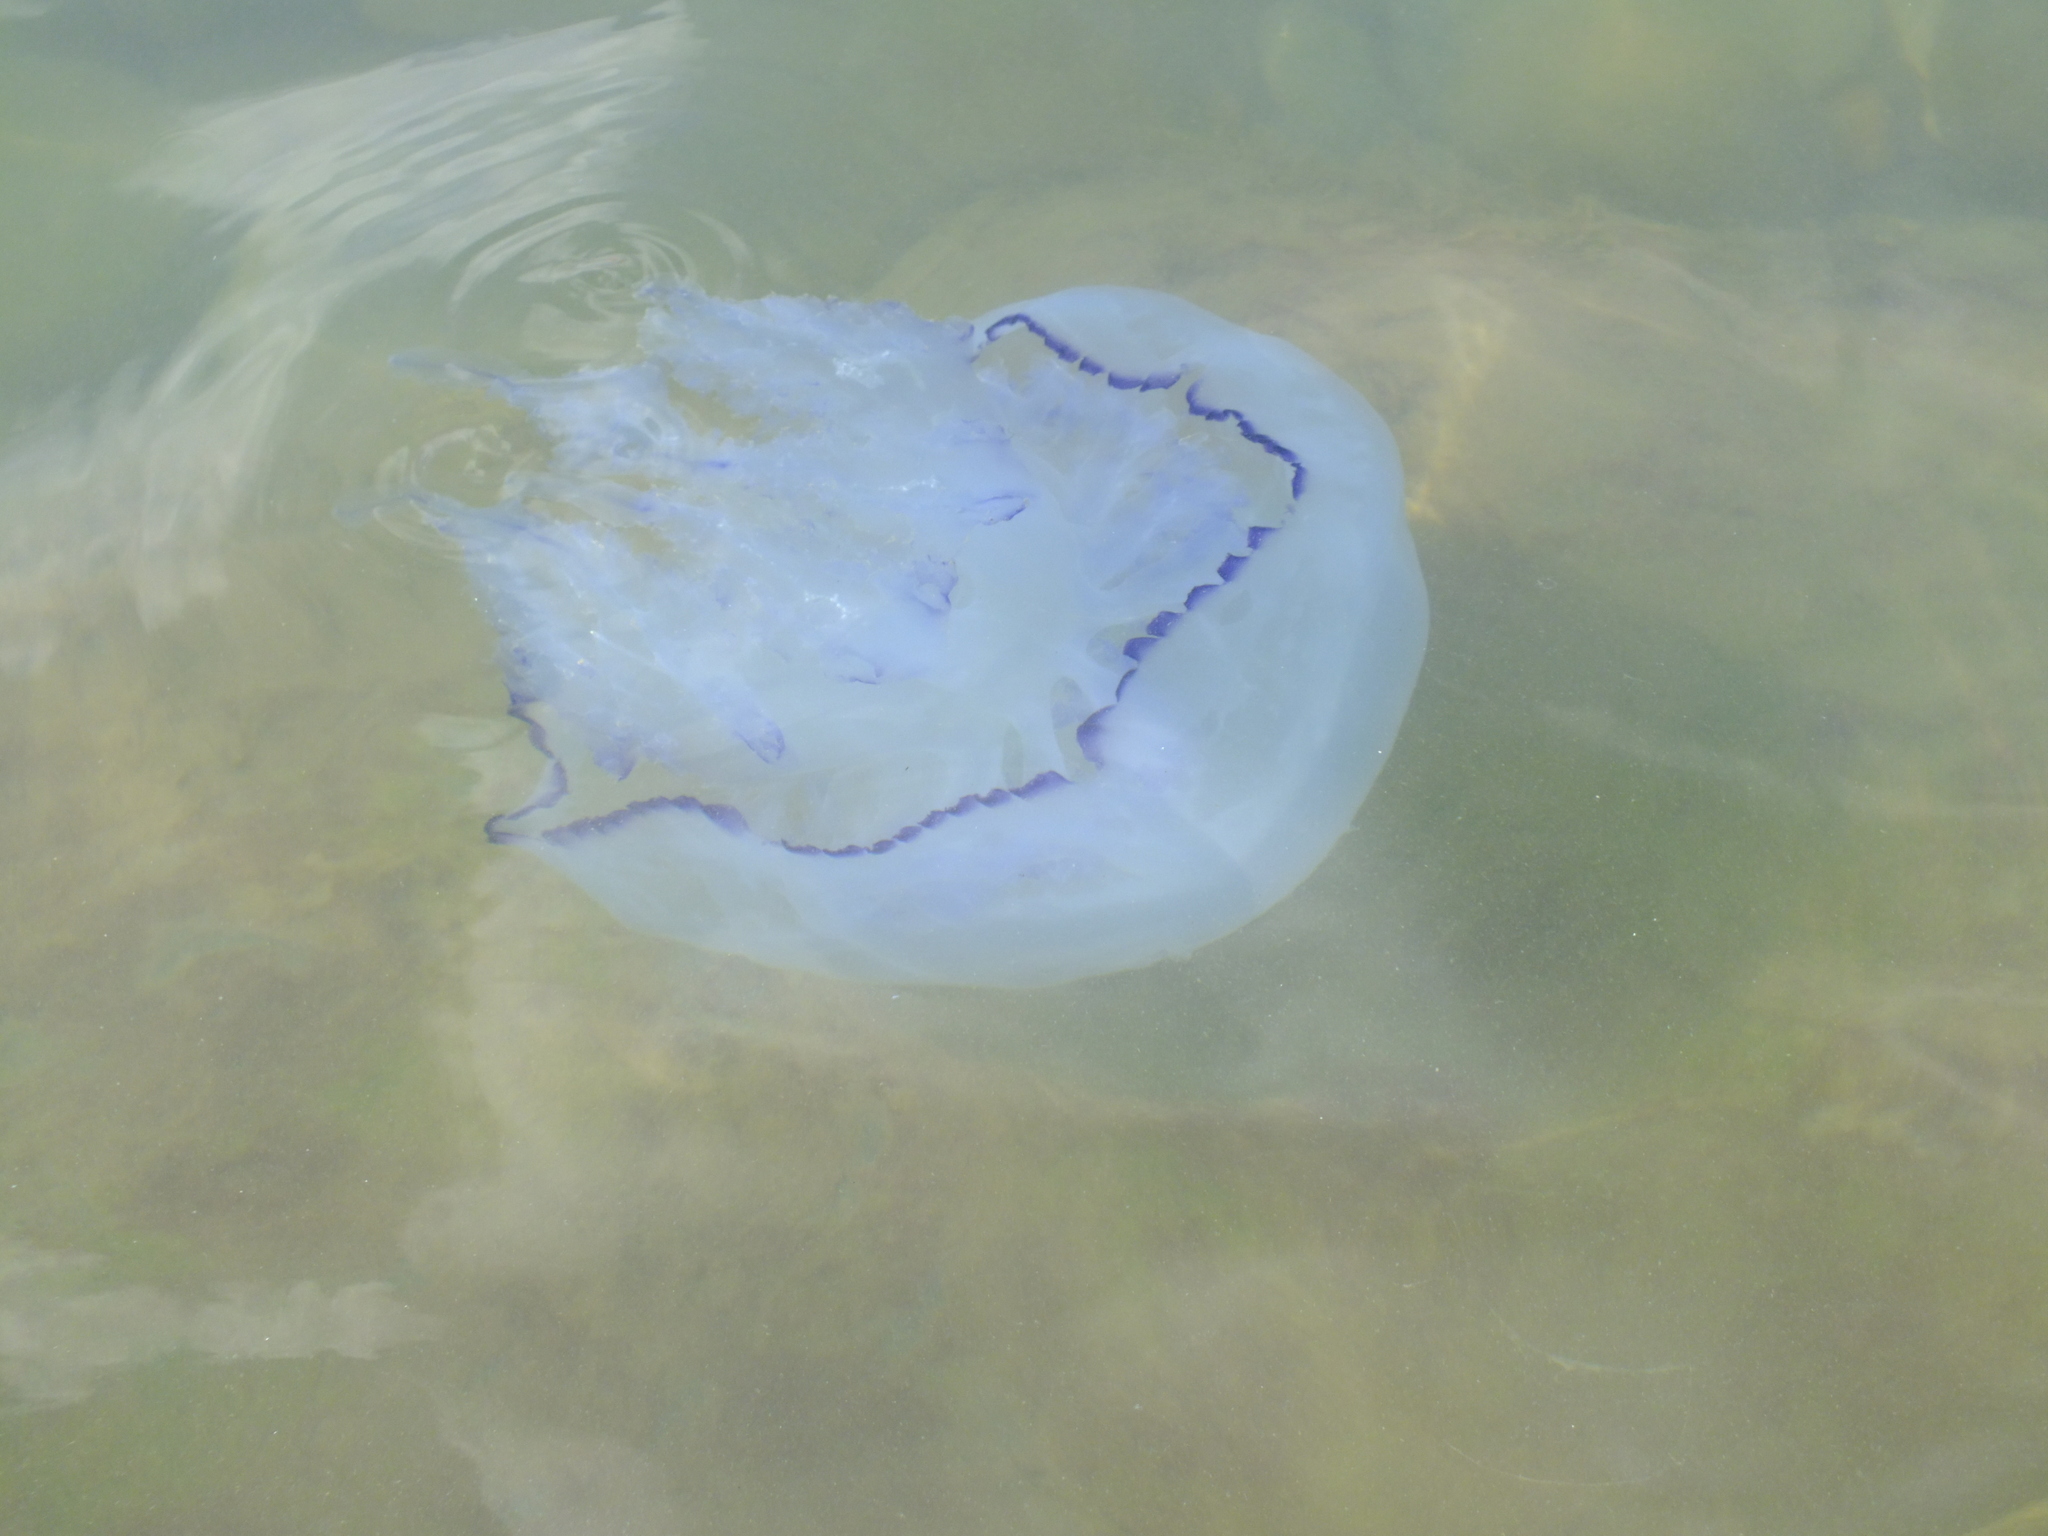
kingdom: Animalia
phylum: Cnidaria
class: Scyphozoa
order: Rhizostomeae
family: Rhizostomatidae
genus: Rhizostoma
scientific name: Rhizostoma pulmo
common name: Barrel jellyfish
